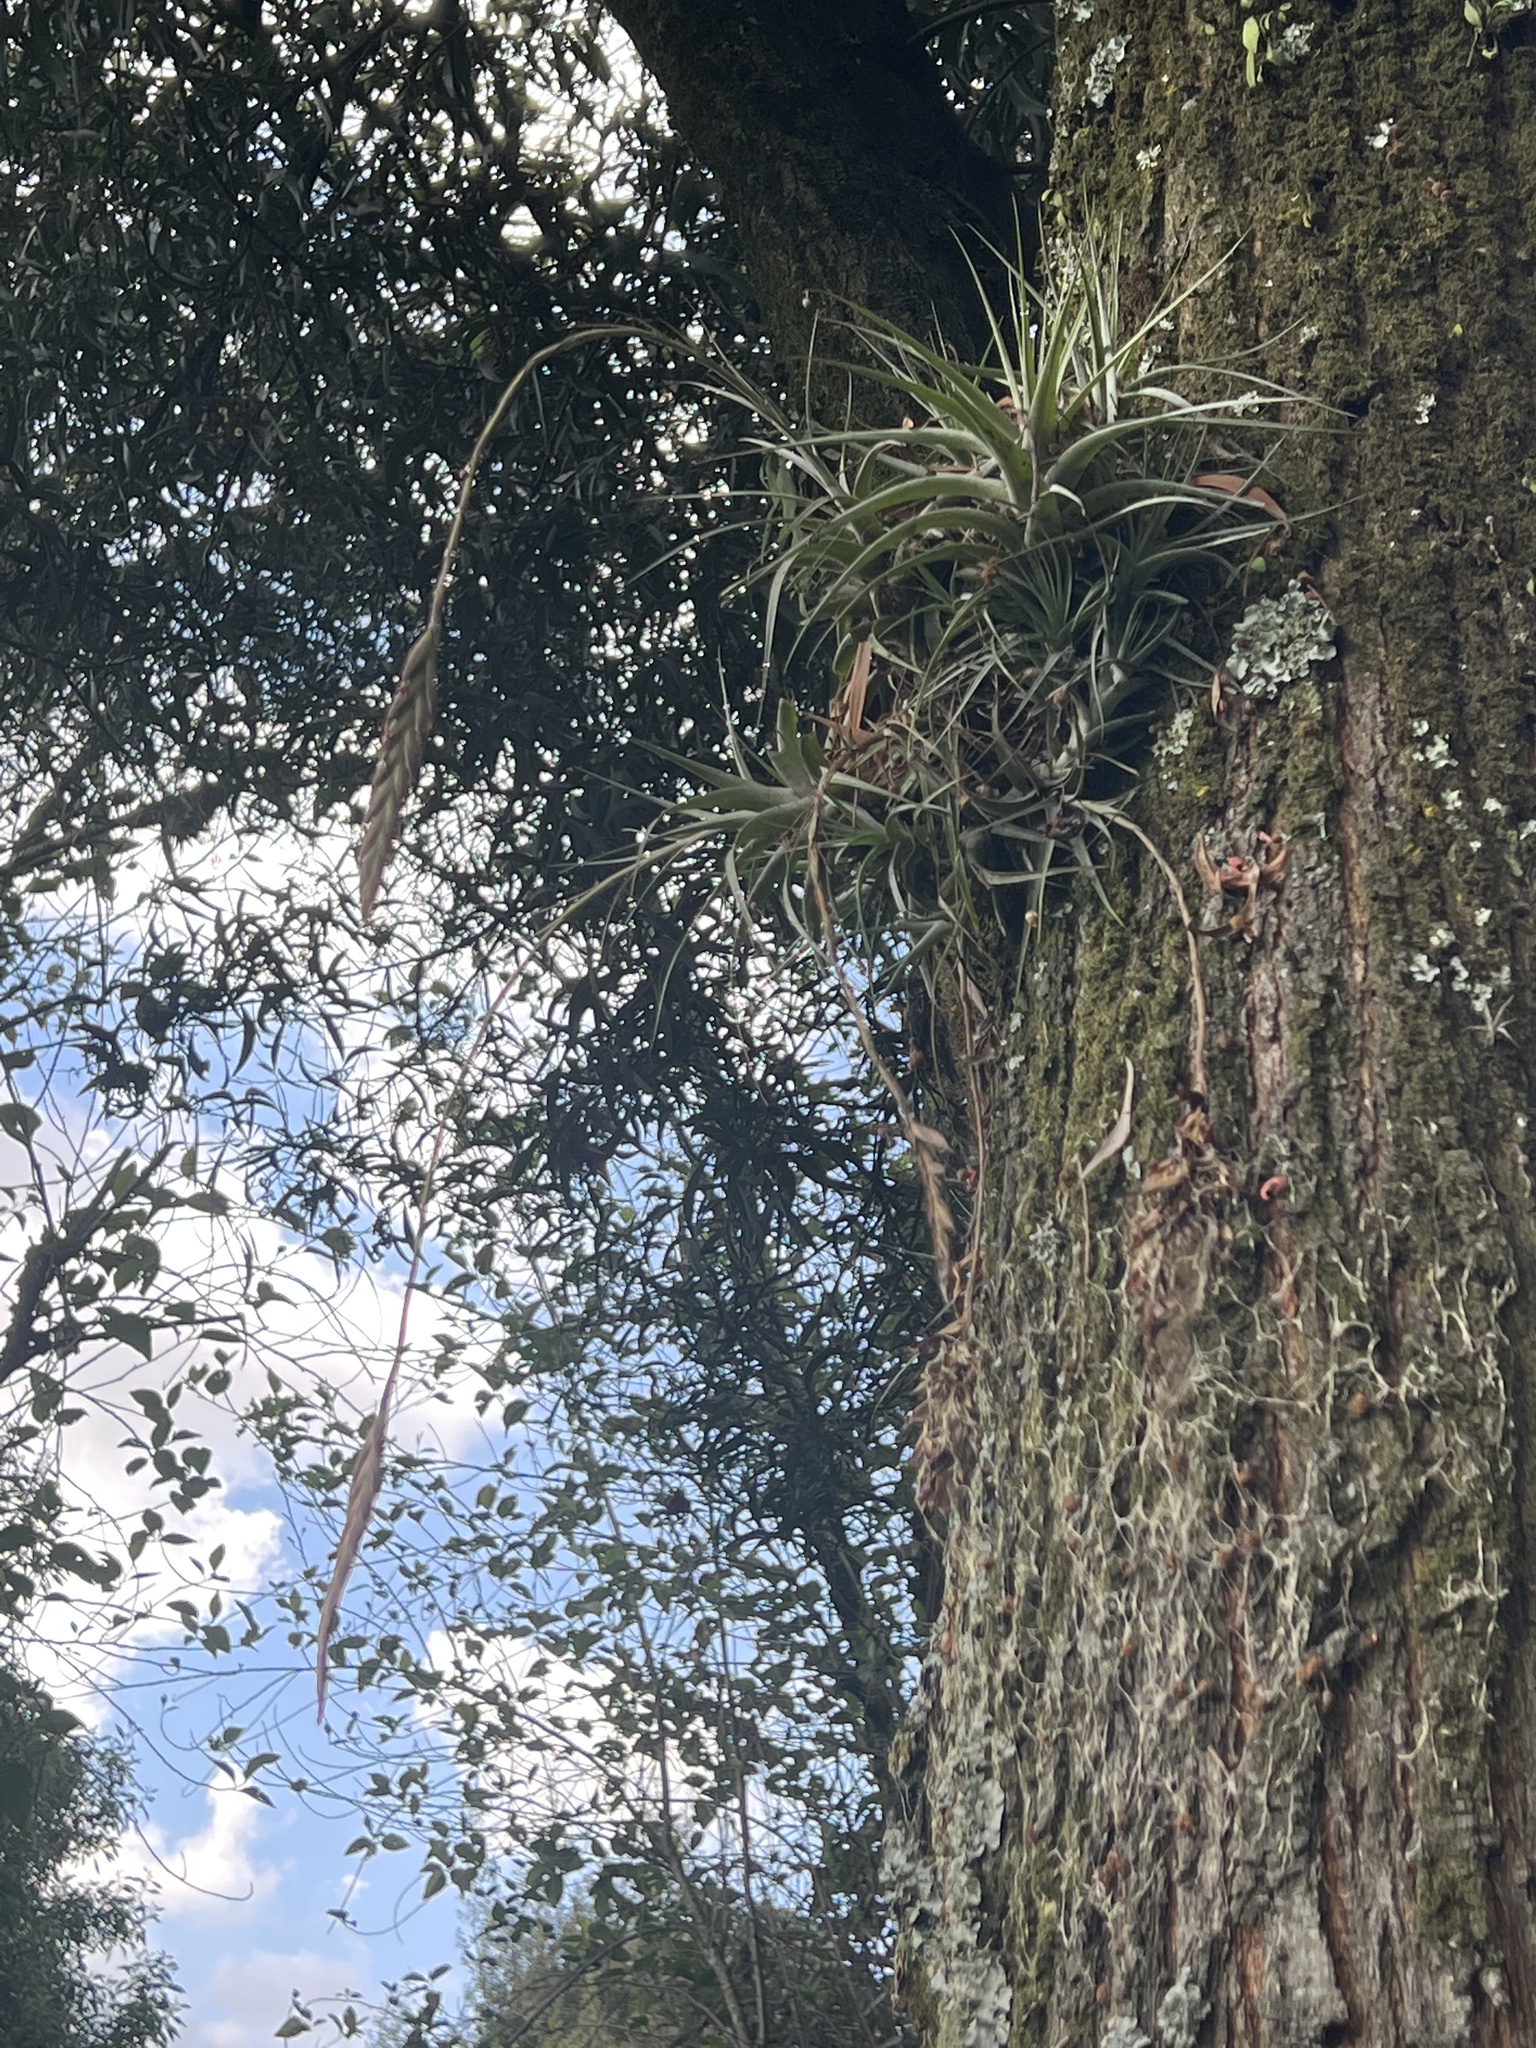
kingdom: Plantae
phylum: Tracheophyta
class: Liliopsida
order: Poales
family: Bromeliaceae
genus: Tillandsia
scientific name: Tillandsia incarnata
